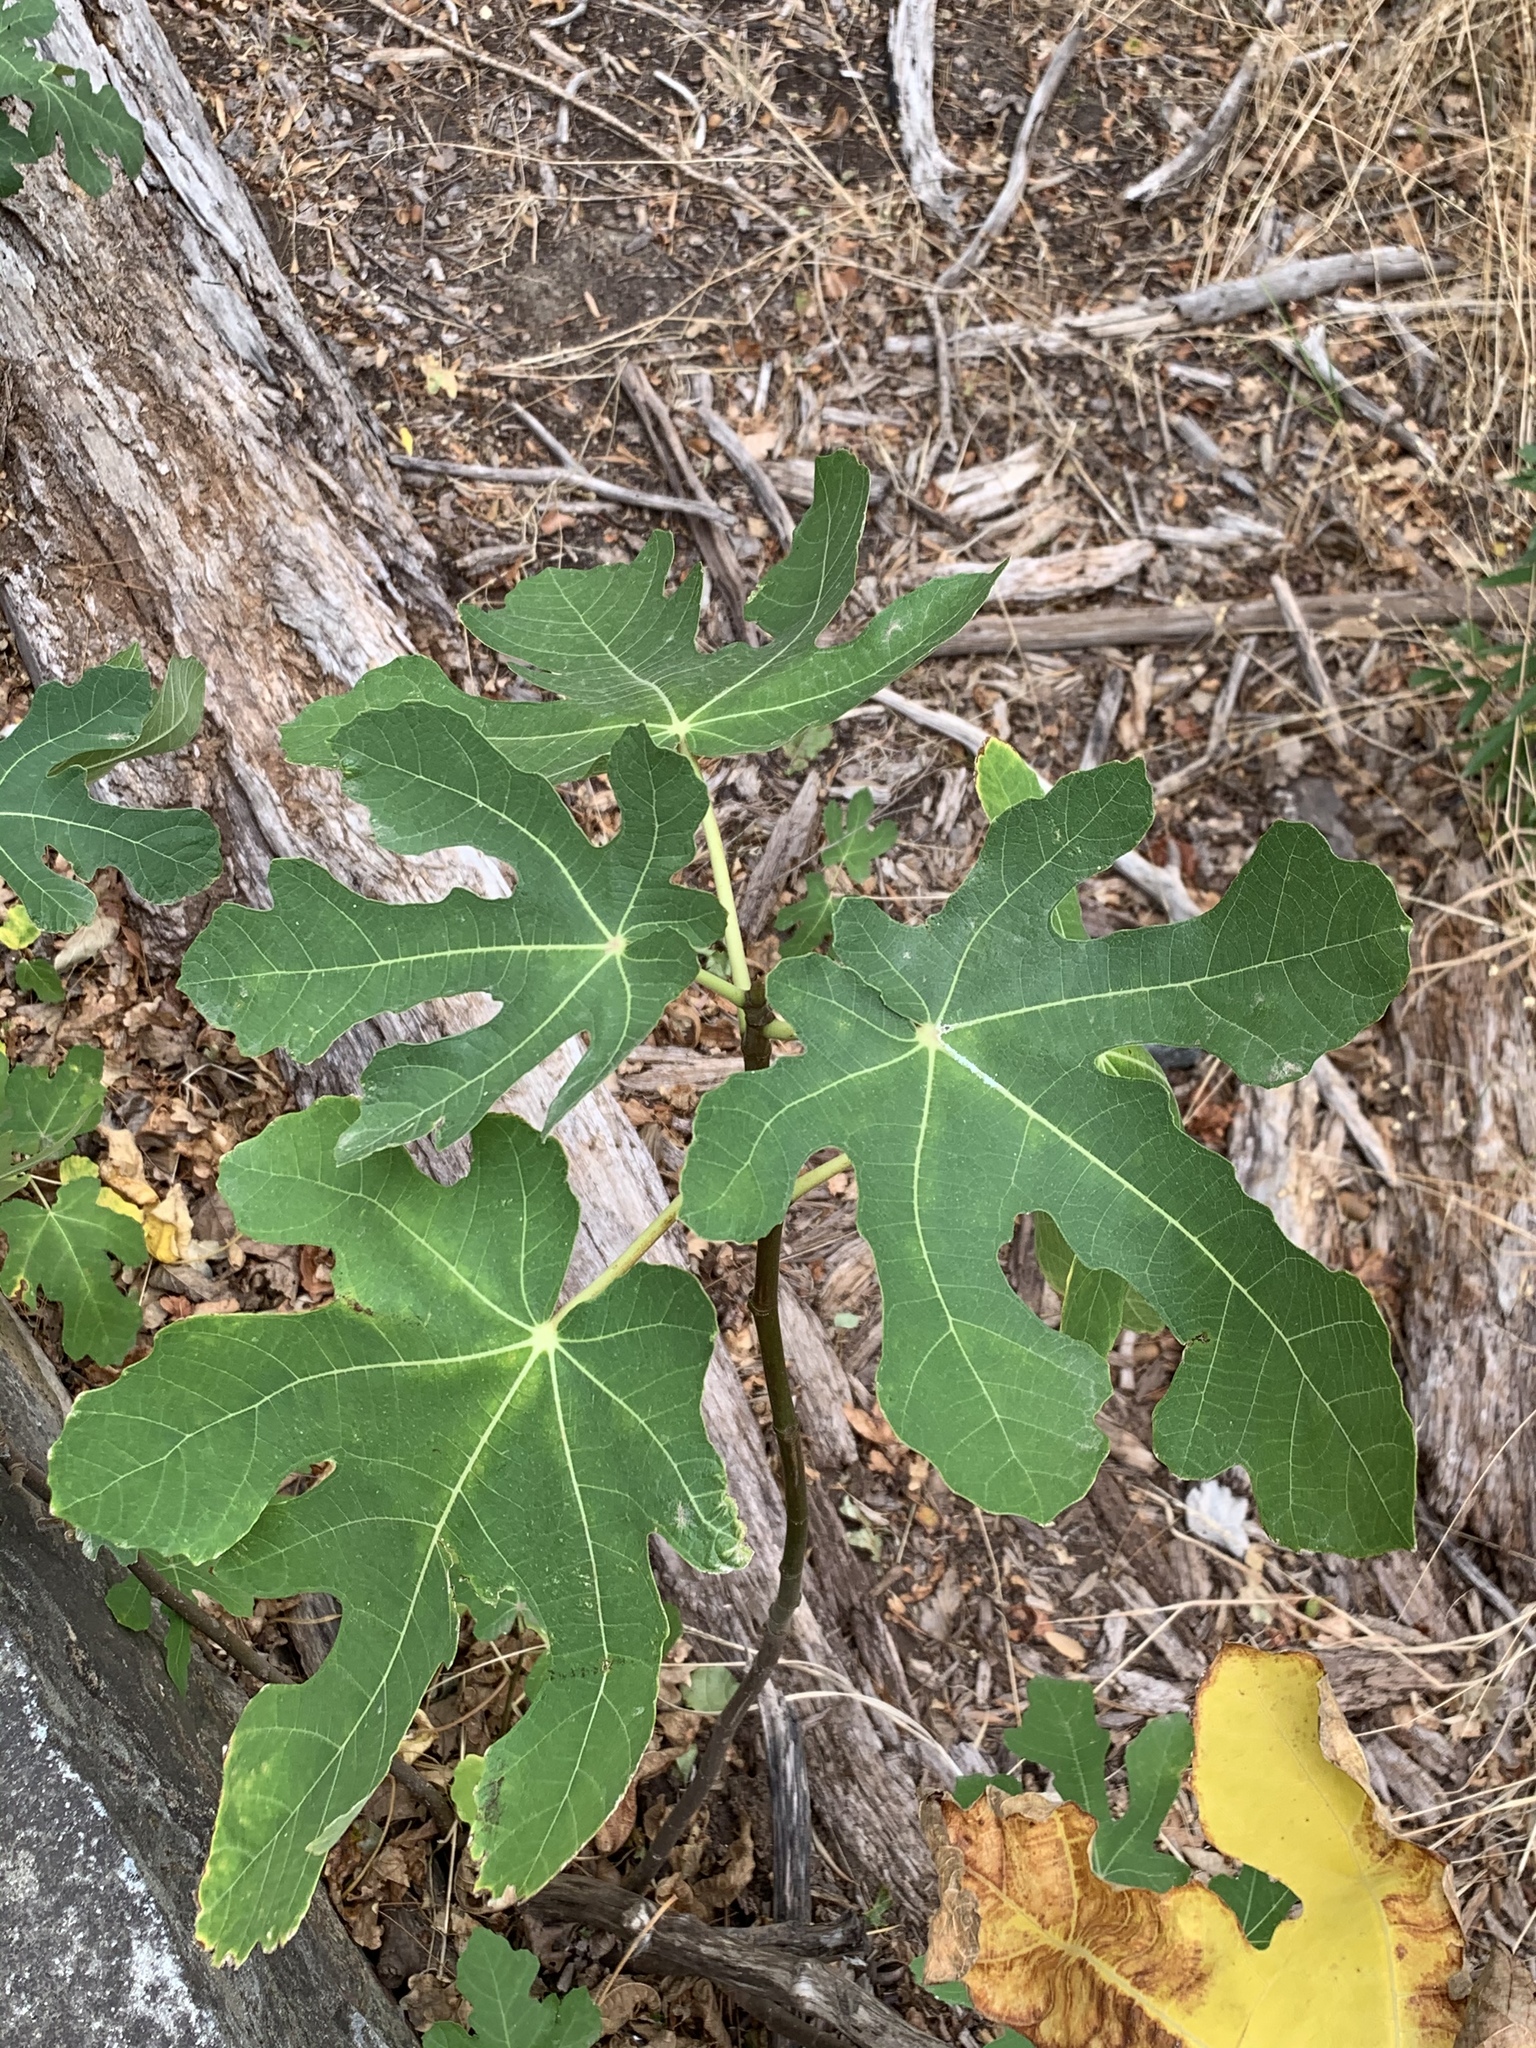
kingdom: Plantae
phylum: Tracheophyta
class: Magnoliopsida
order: Rosales
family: Moraceae
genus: Ficus
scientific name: Ficus carica
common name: Fig
